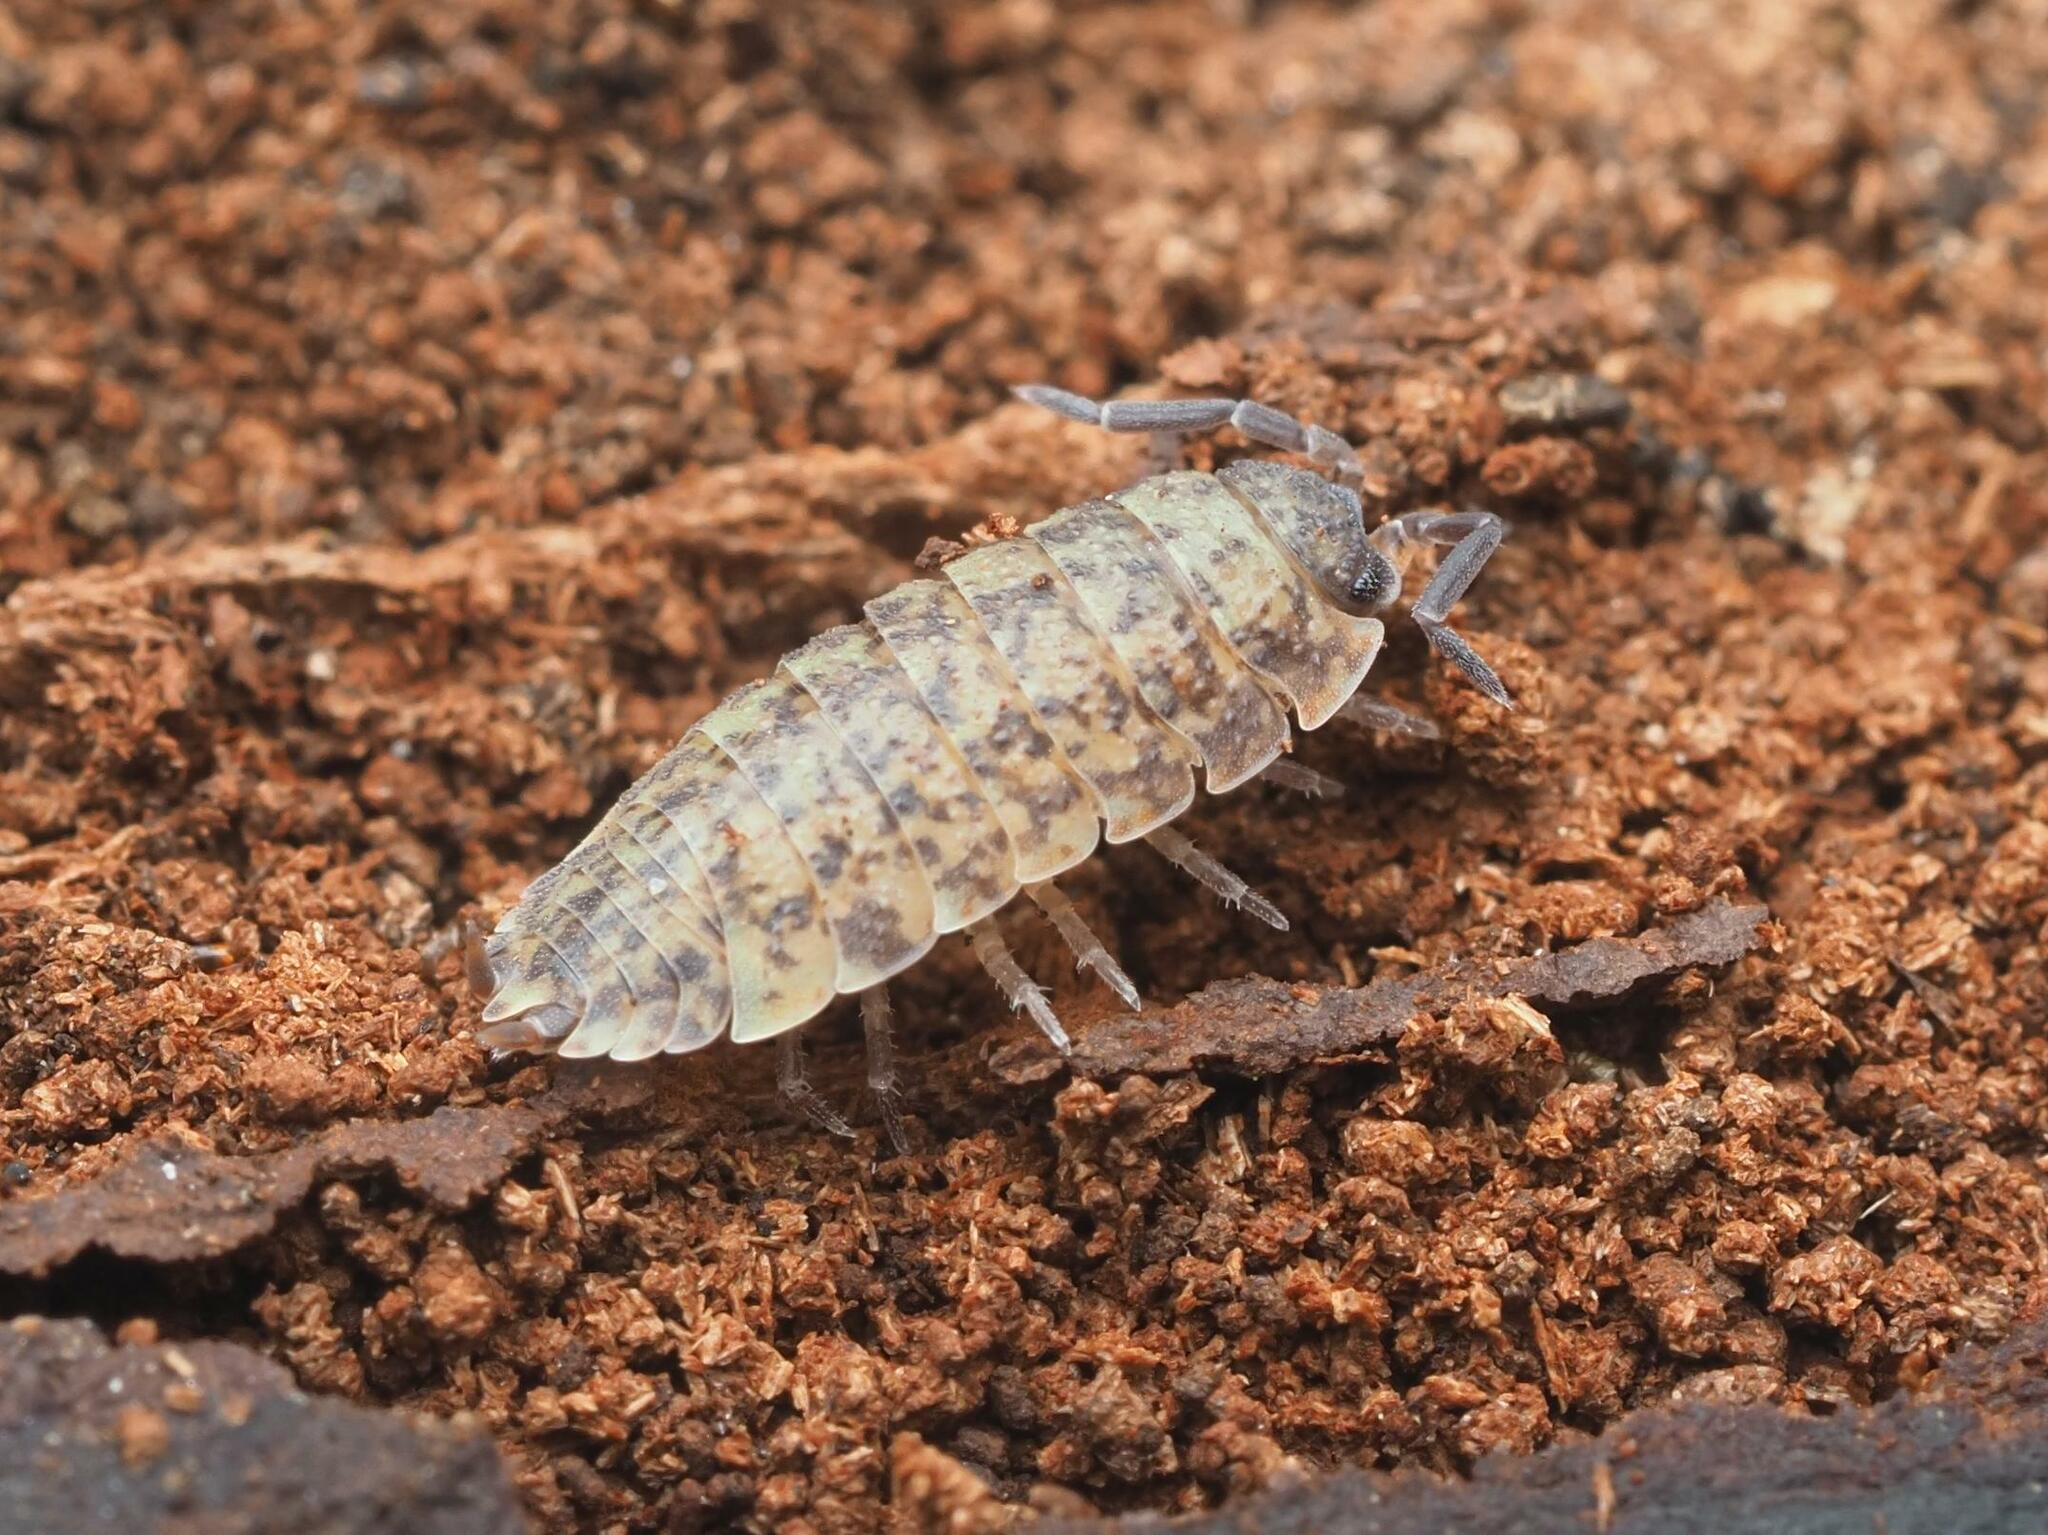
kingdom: Animalia
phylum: Arthropoda
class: Malacostraca
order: Isopoda
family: Porcellionidae
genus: Porcellio
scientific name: Porcellio scaber
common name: Common rough woodlouse
